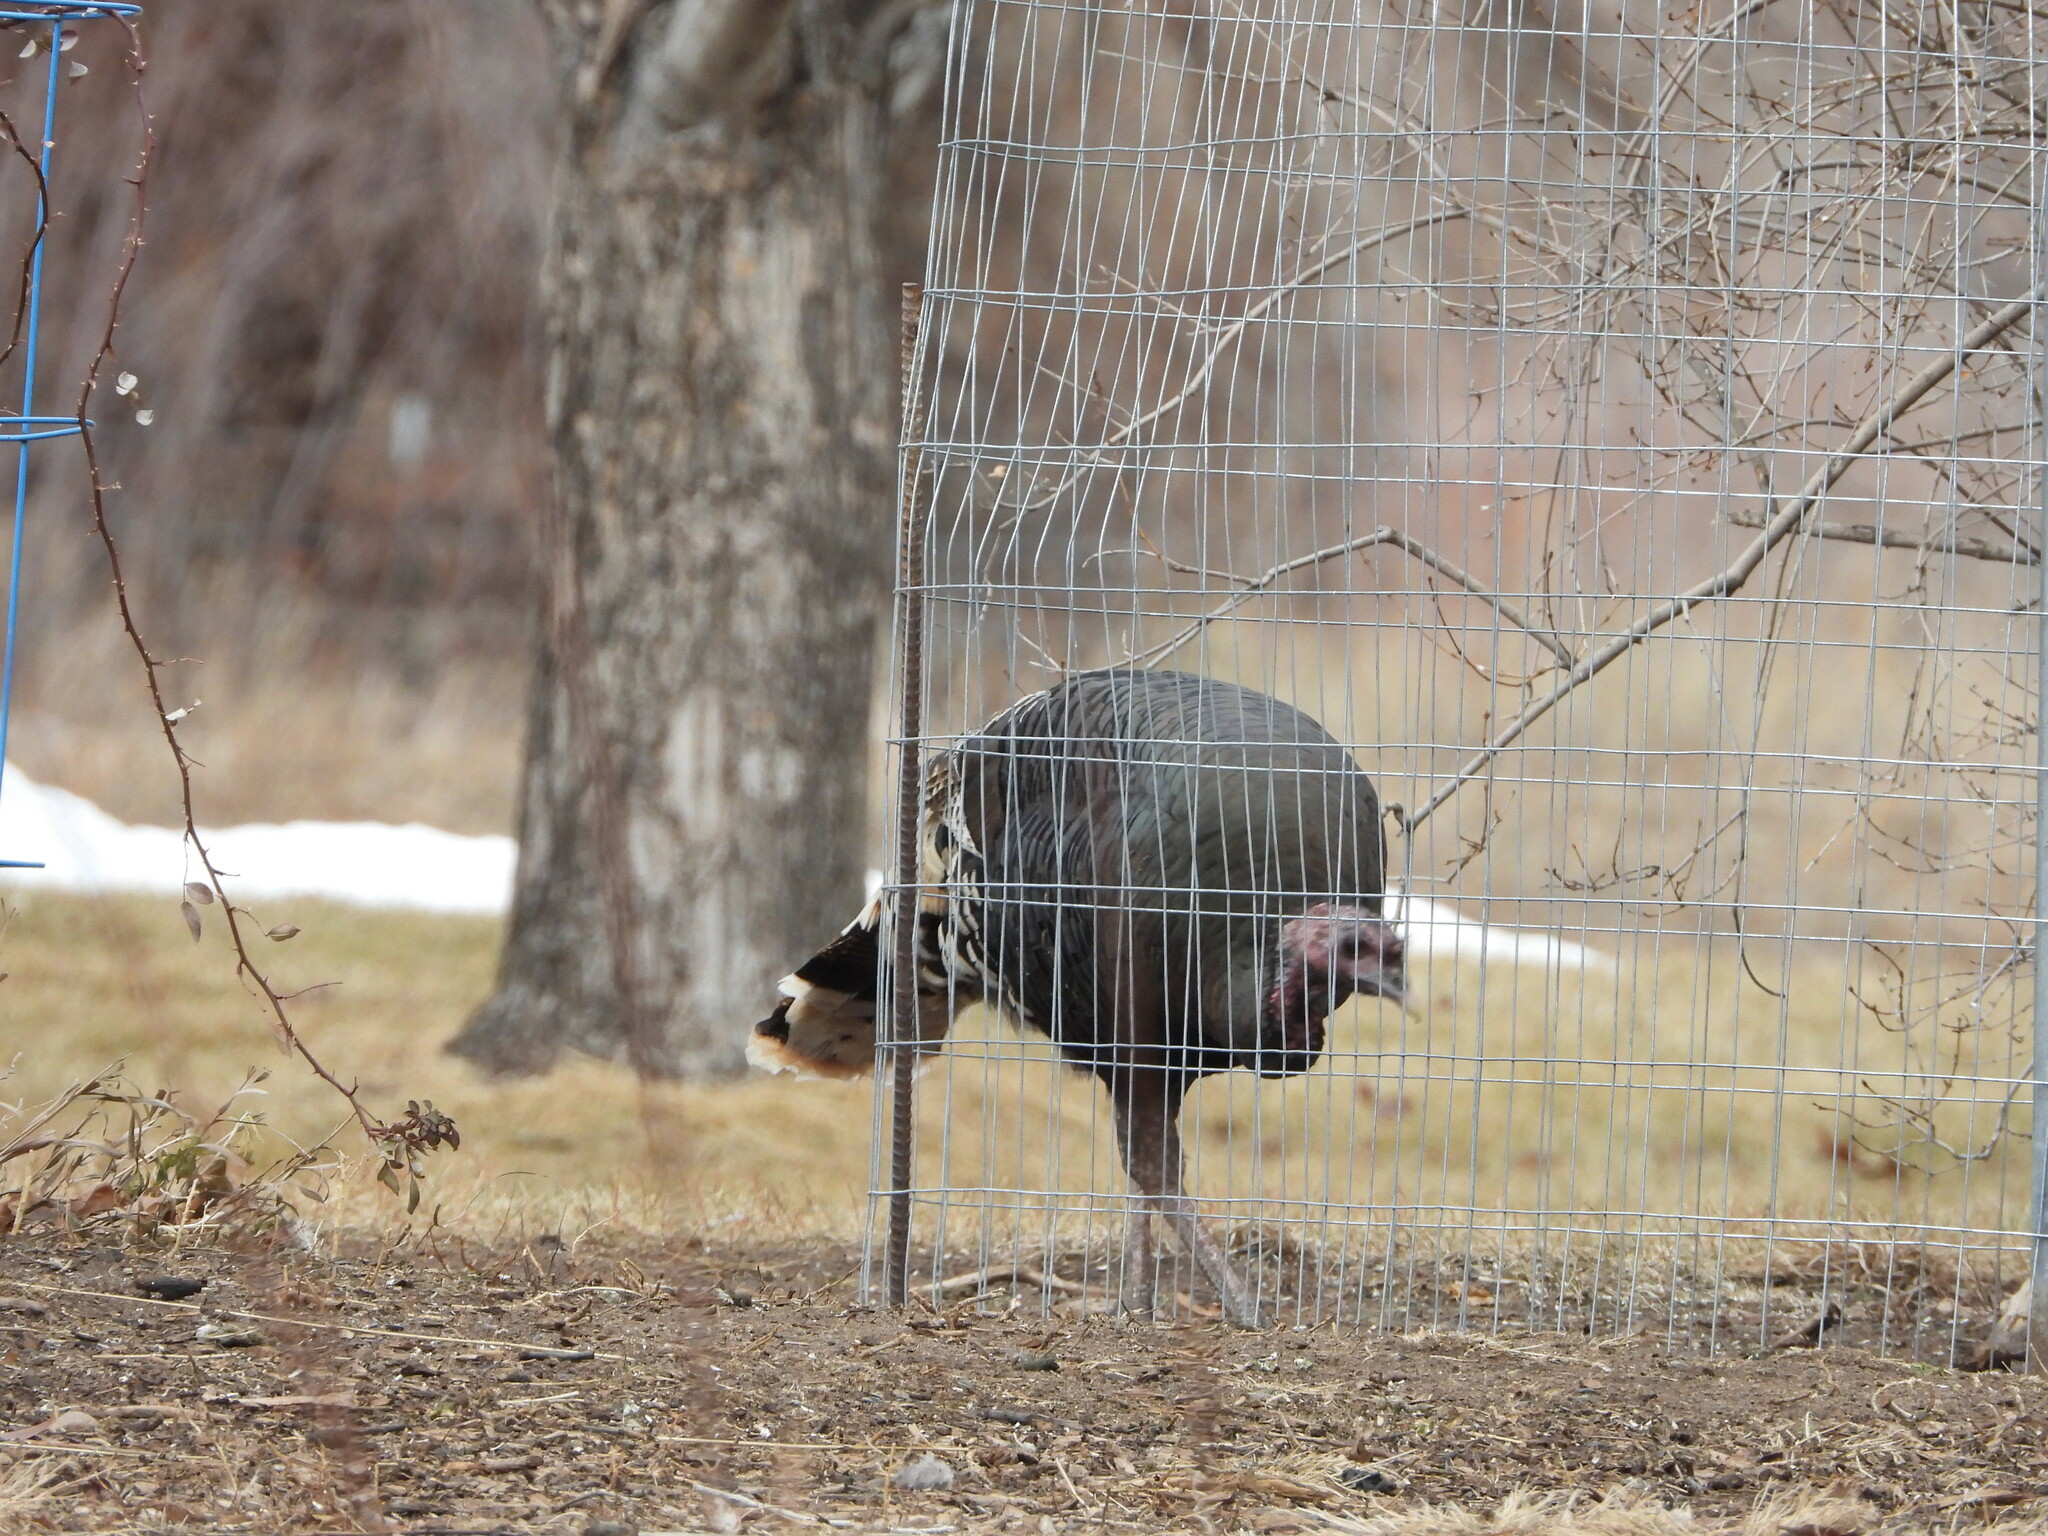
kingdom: Animalia
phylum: Chordata
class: Aves
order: Galliformes
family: Phasianidae
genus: Meleagris
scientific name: Meleagris gallopavo
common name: Wild turkey
